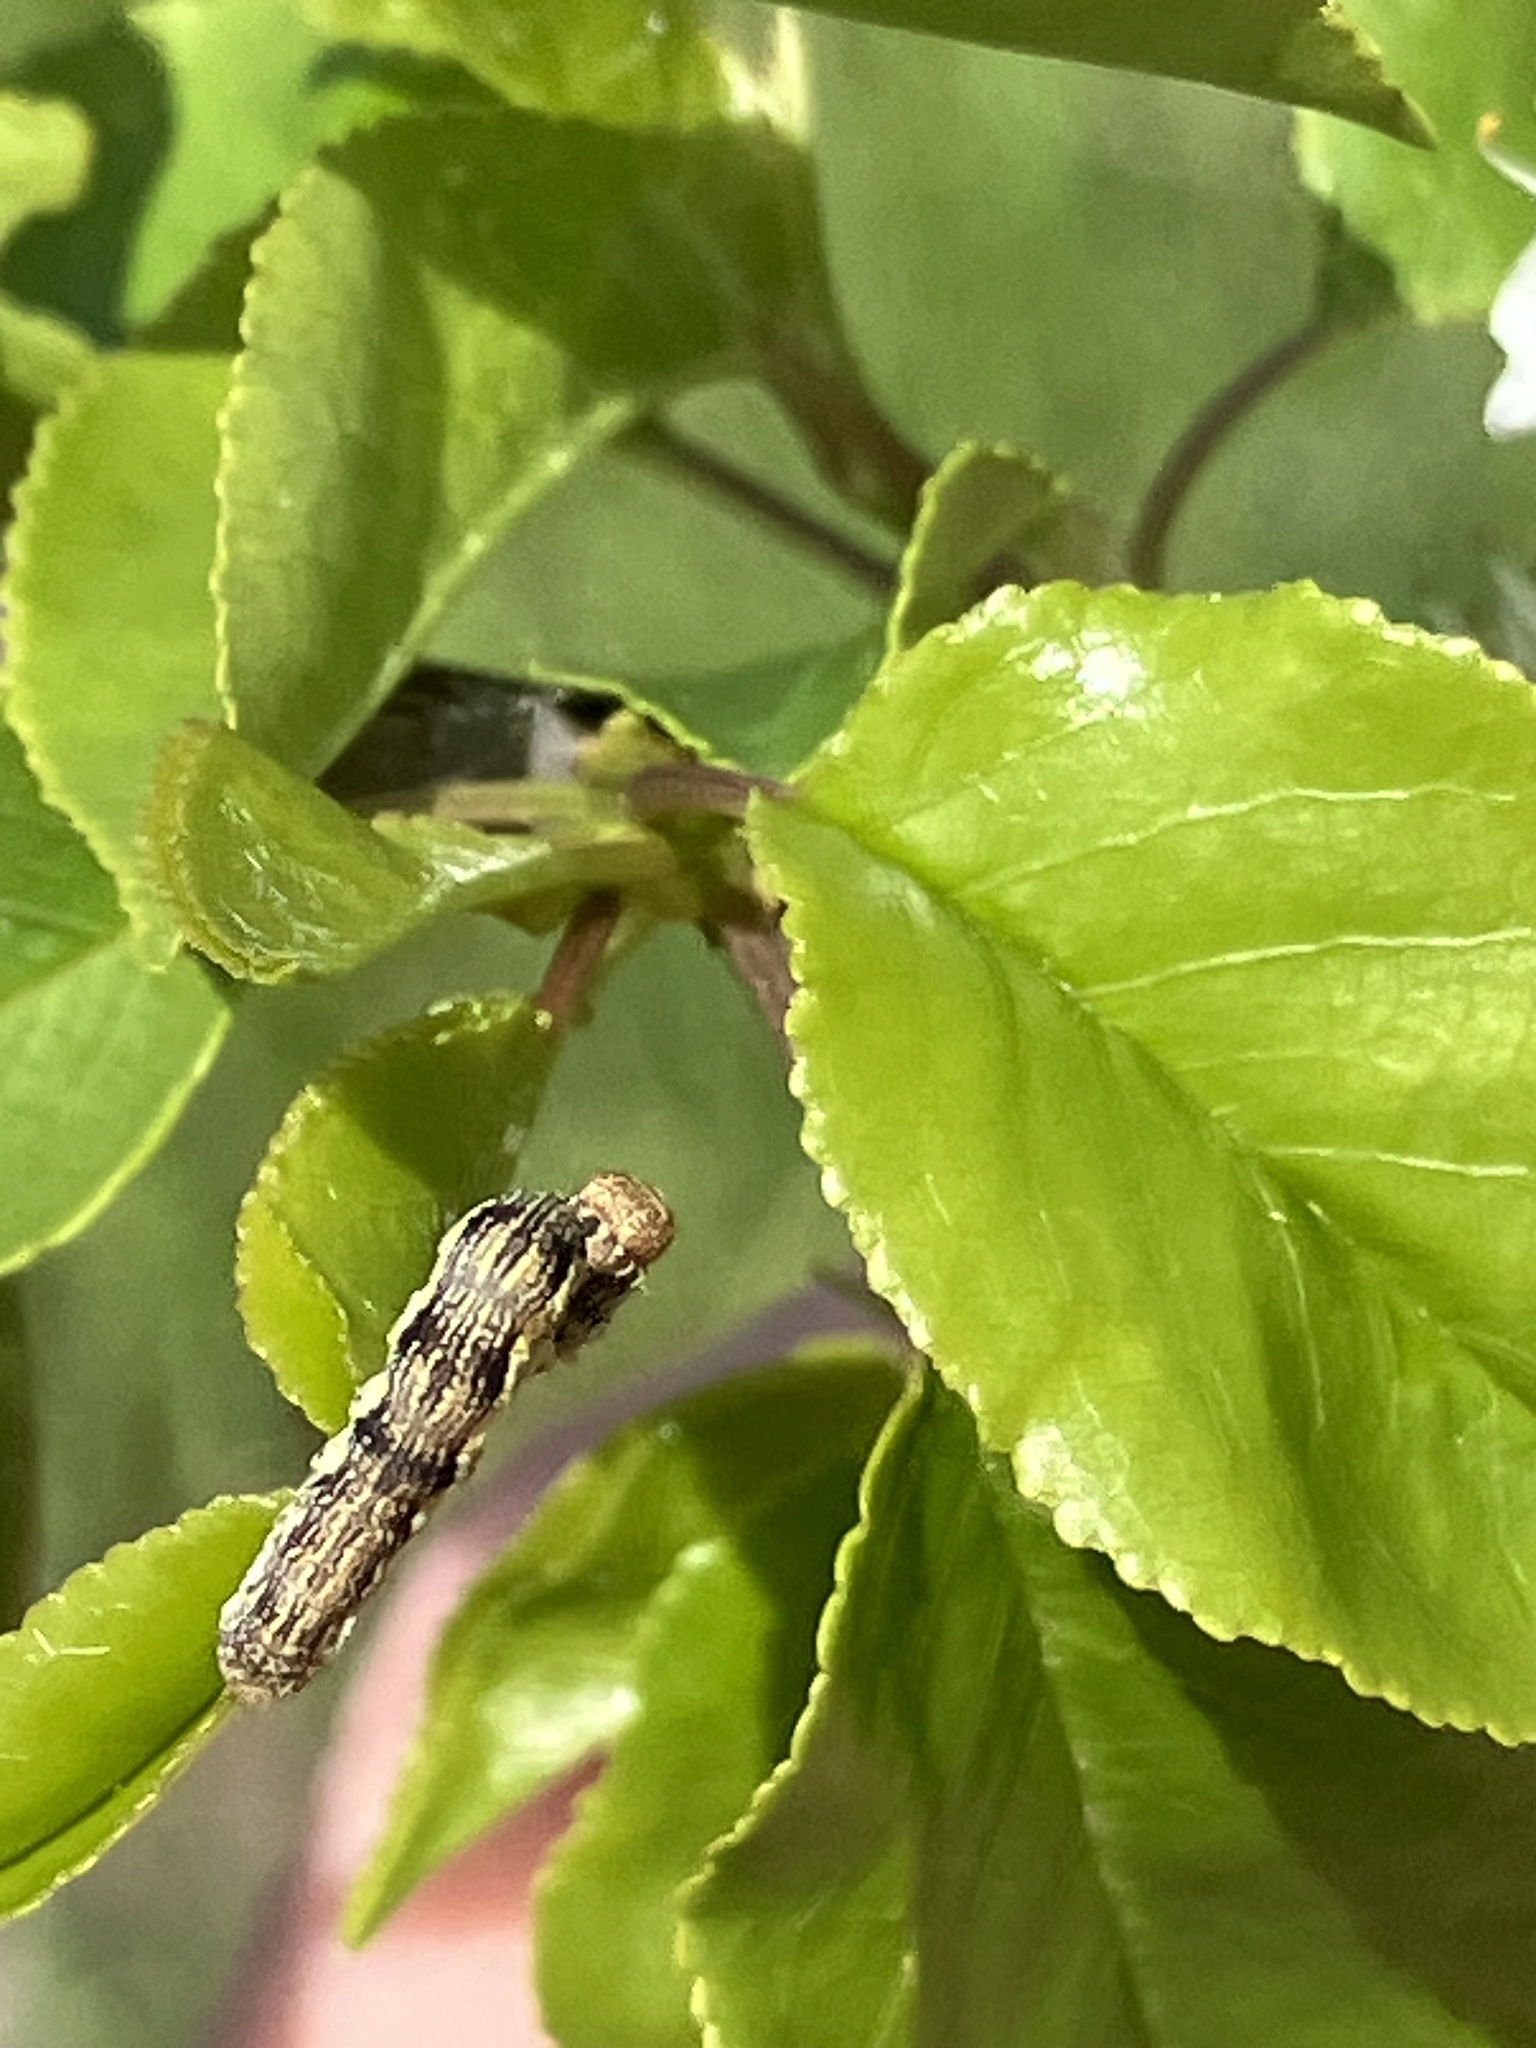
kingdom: Animalia
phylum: Arthropoda
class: Insecta
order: Lepidoptera
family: Geometridae
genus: Erannis
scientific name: Erannis defoliaria
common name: Mottled umber
